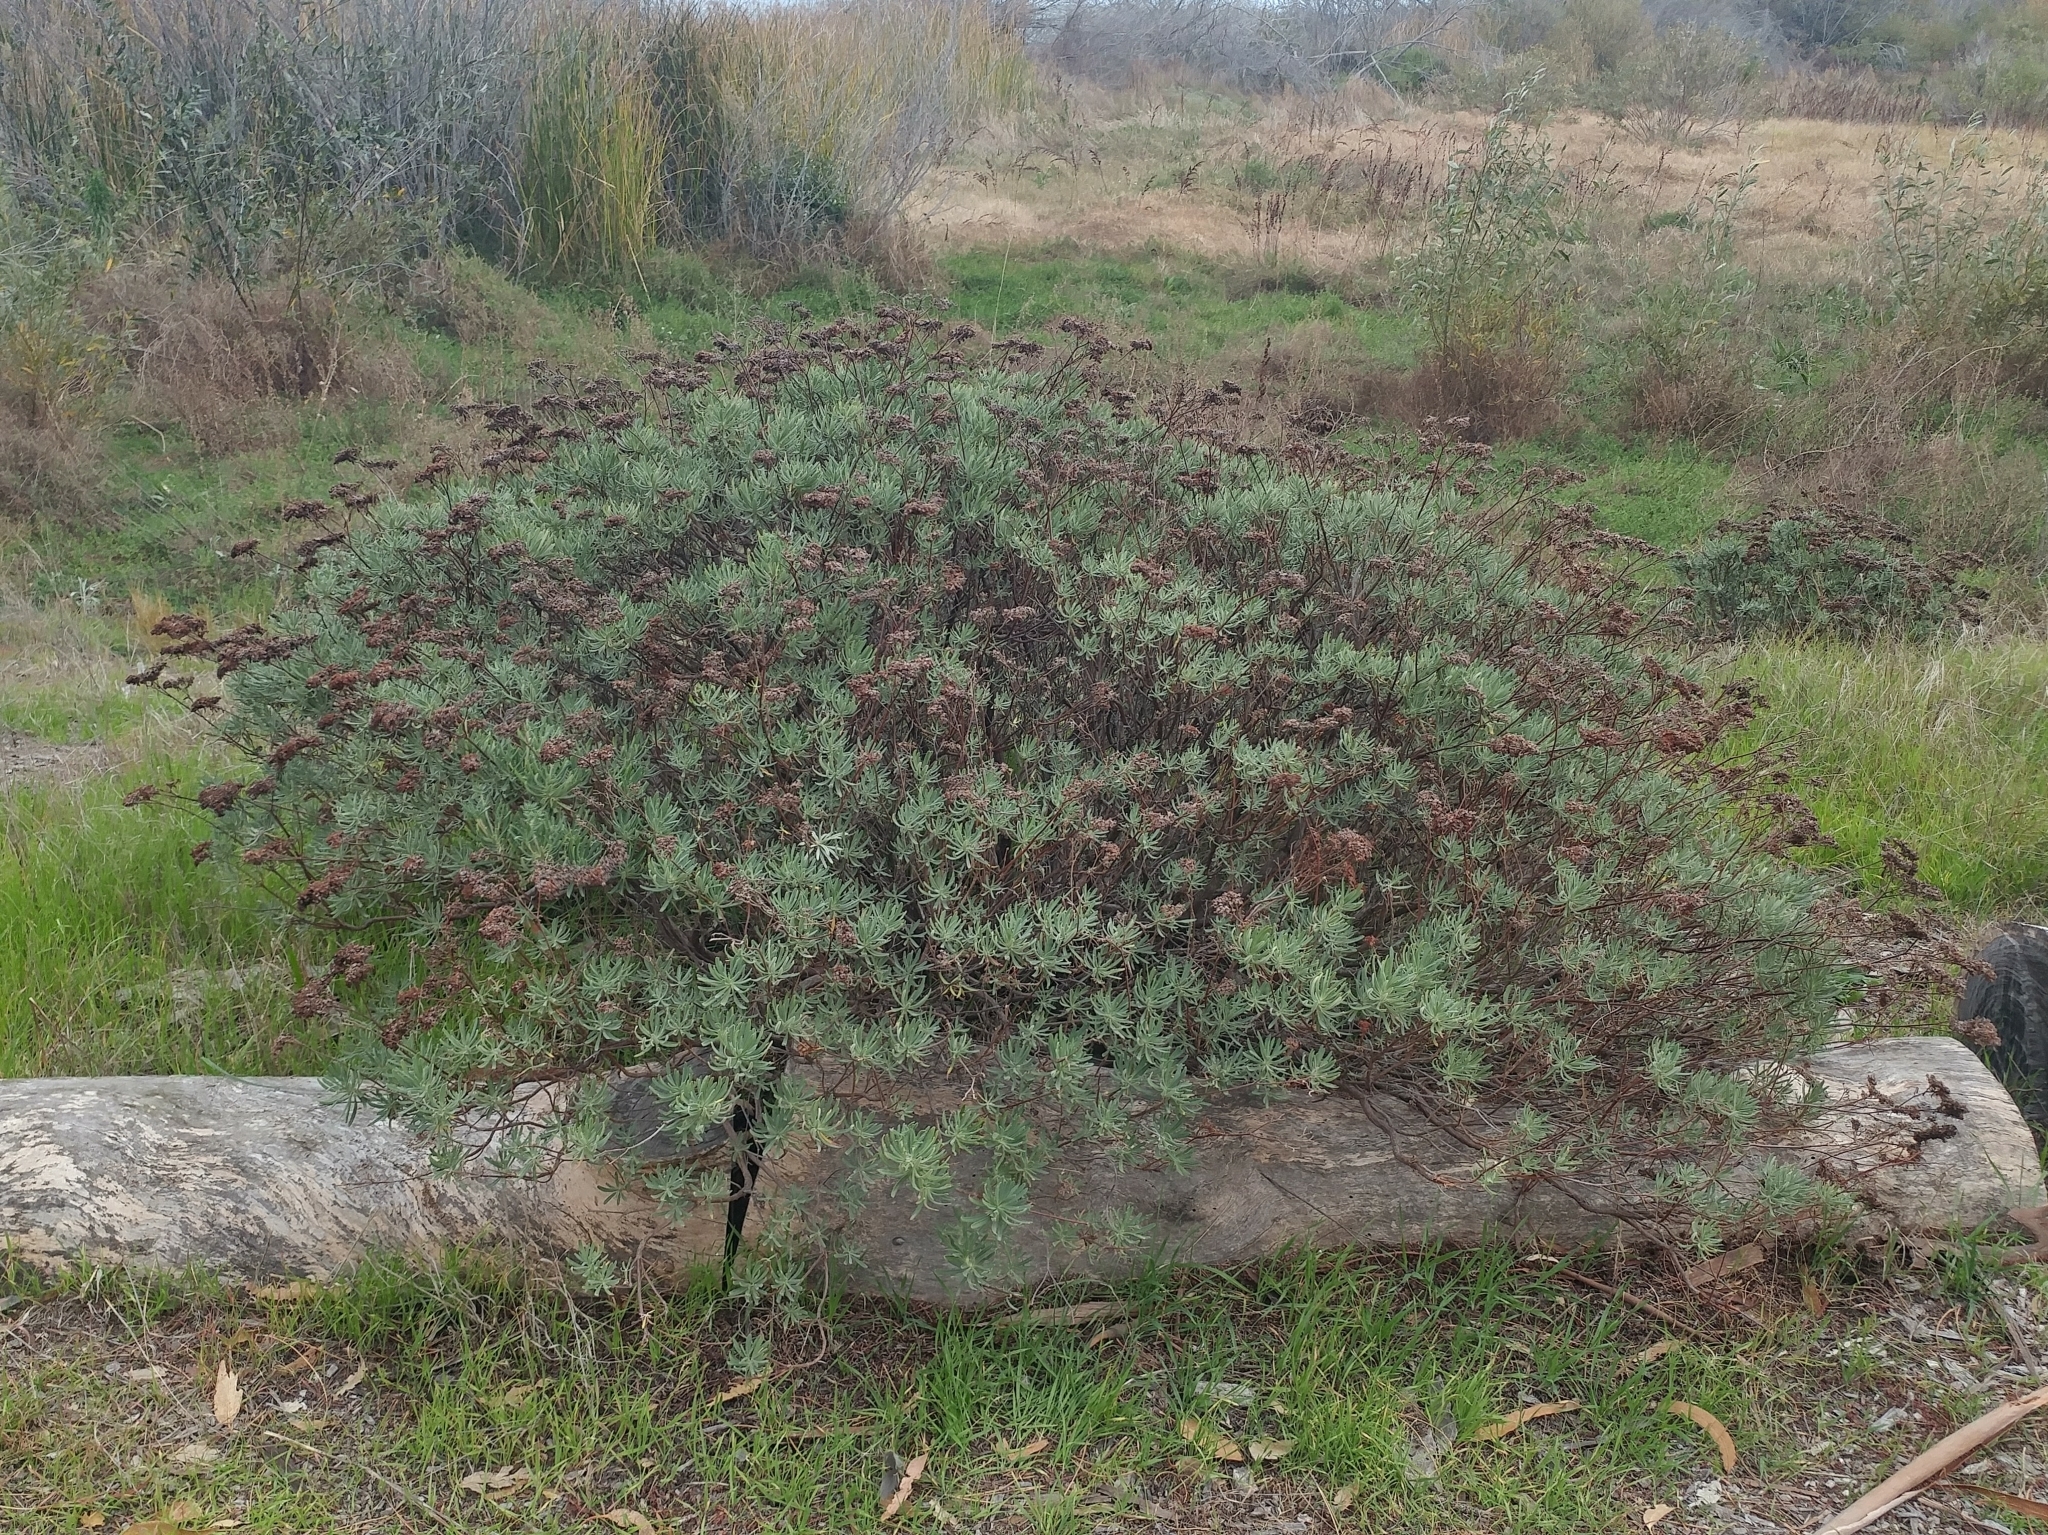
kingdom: Plantae
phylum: Tracheophyta
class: Magnoliopsida
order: Caryophyllales
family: Polygonaceae
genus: Eriogonum
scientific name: Eriogonum arborescens
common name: Island buckwheat
